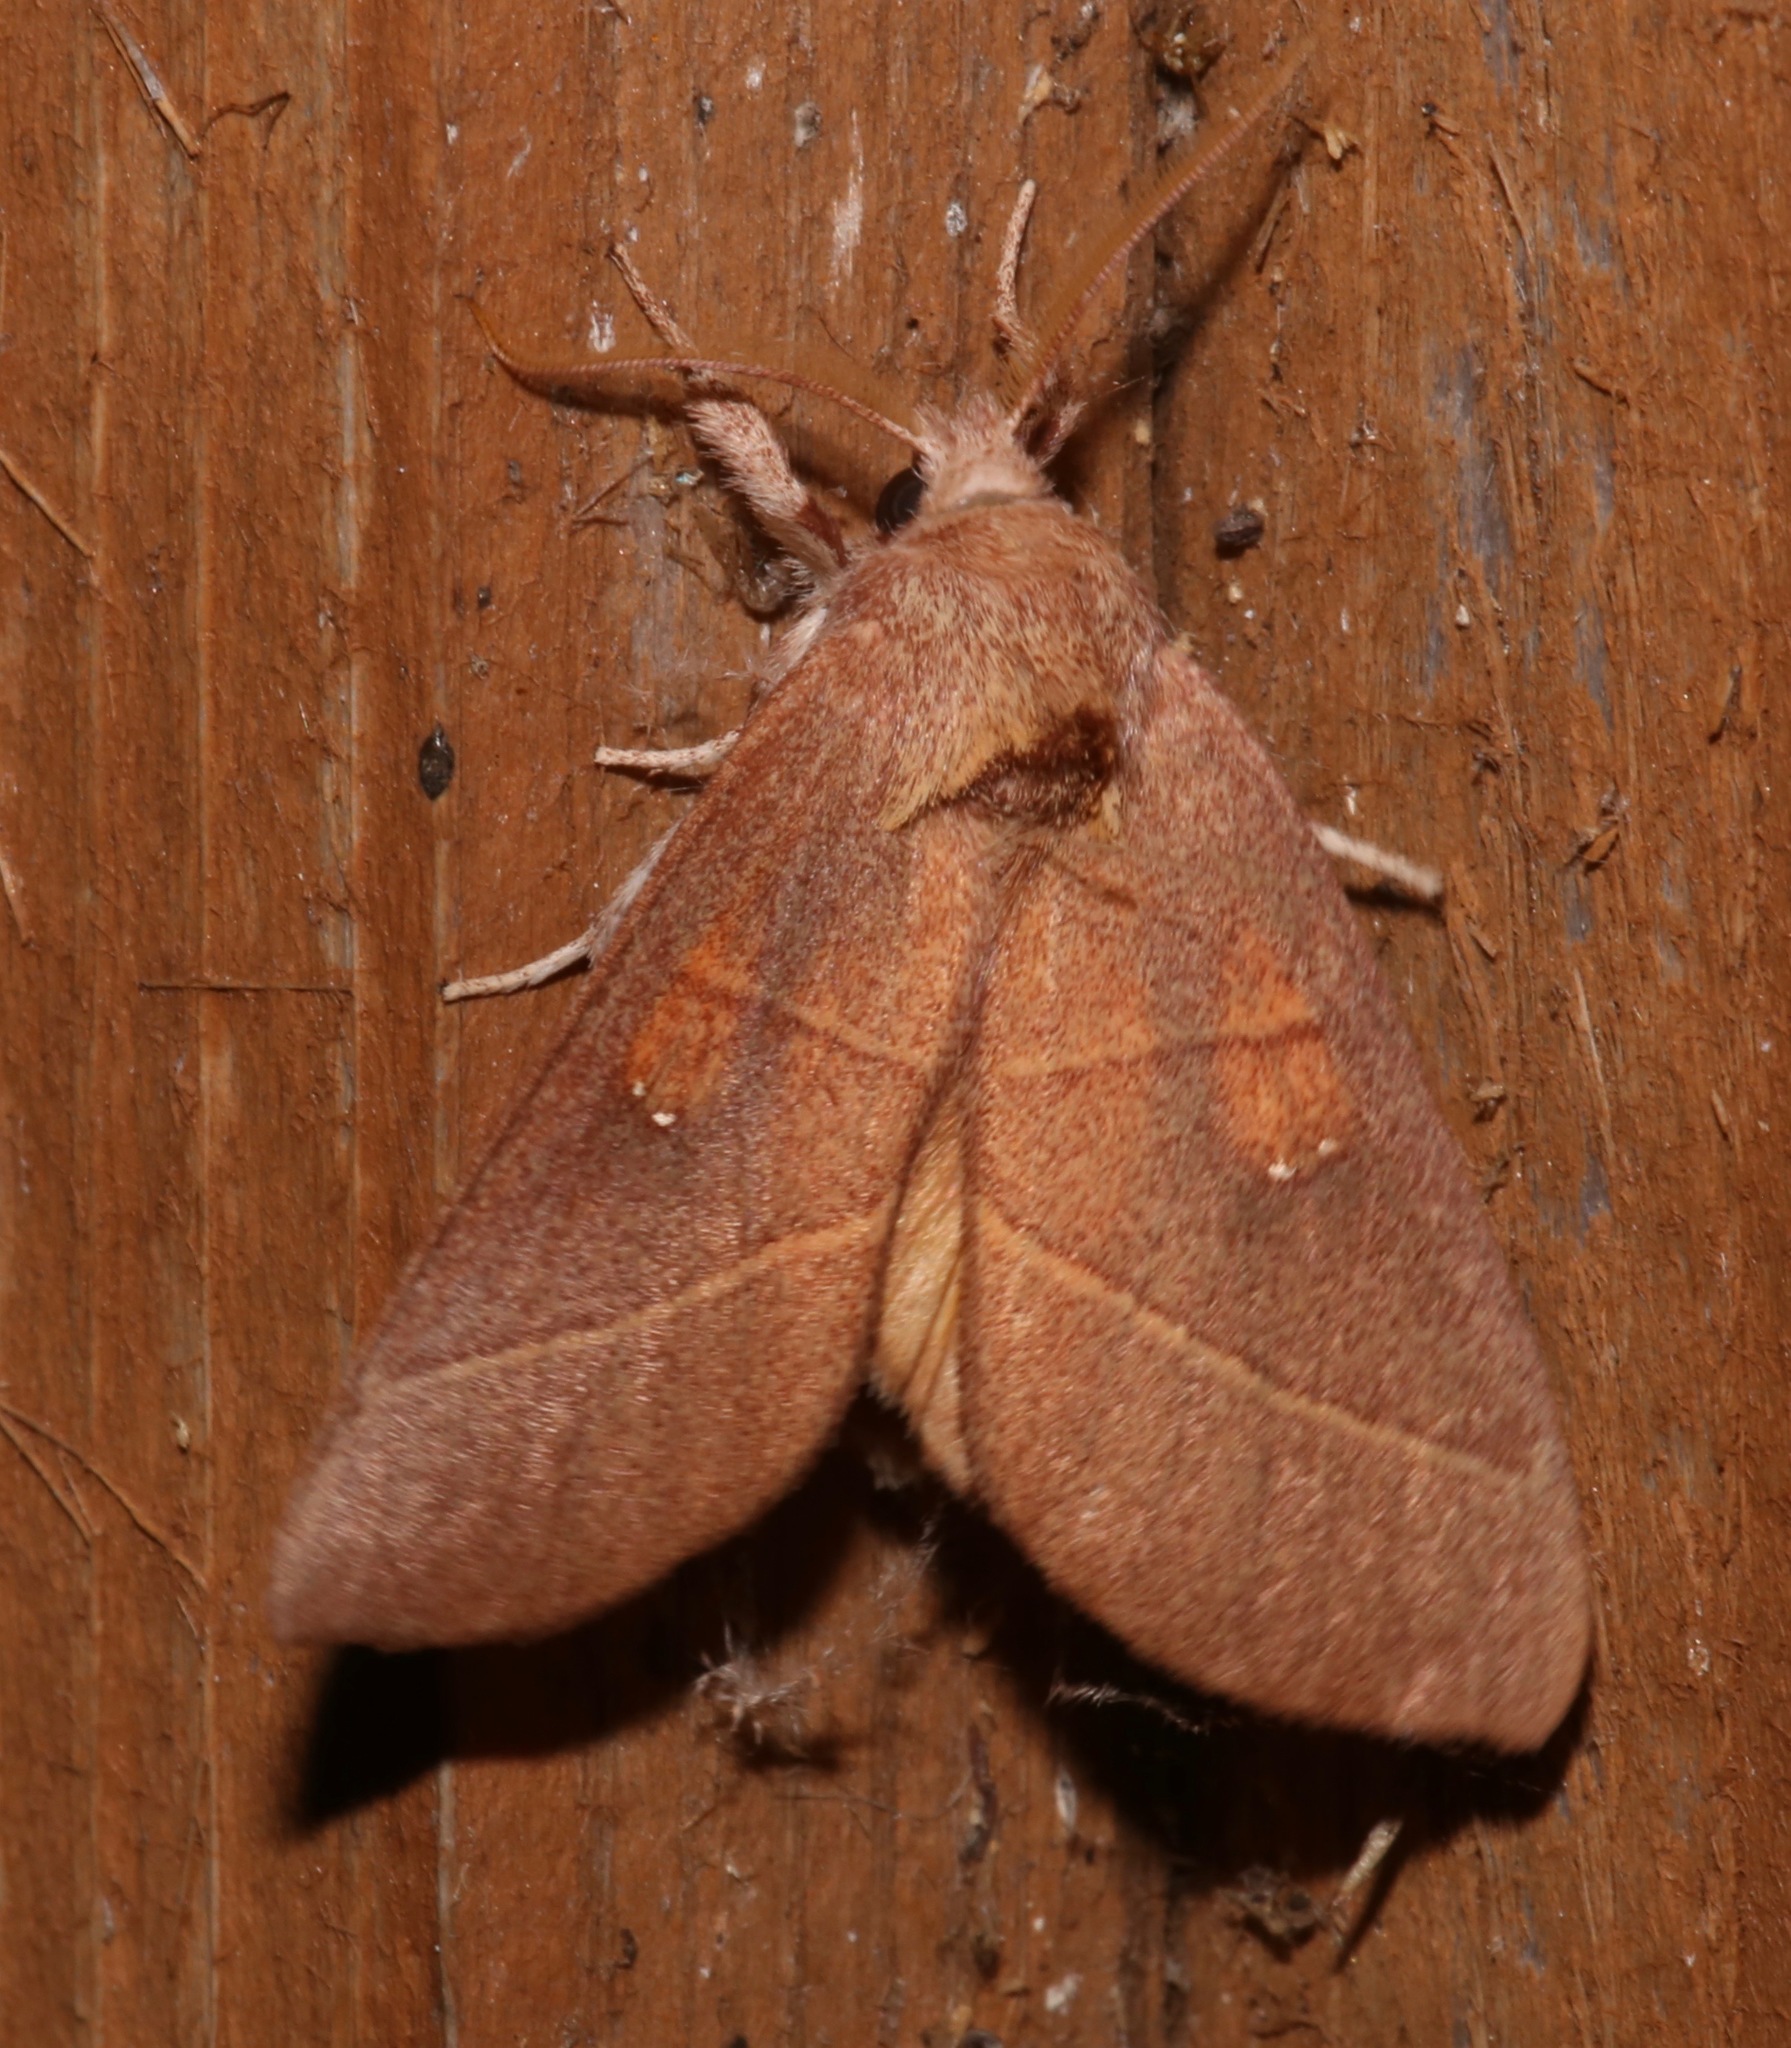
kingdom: Animalia
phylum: Arthropoda
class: Insecta
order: Lepidoptera
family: Notodontidae
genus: Nadata
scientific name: Nadata gibbosa
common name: White-dotted prominent
